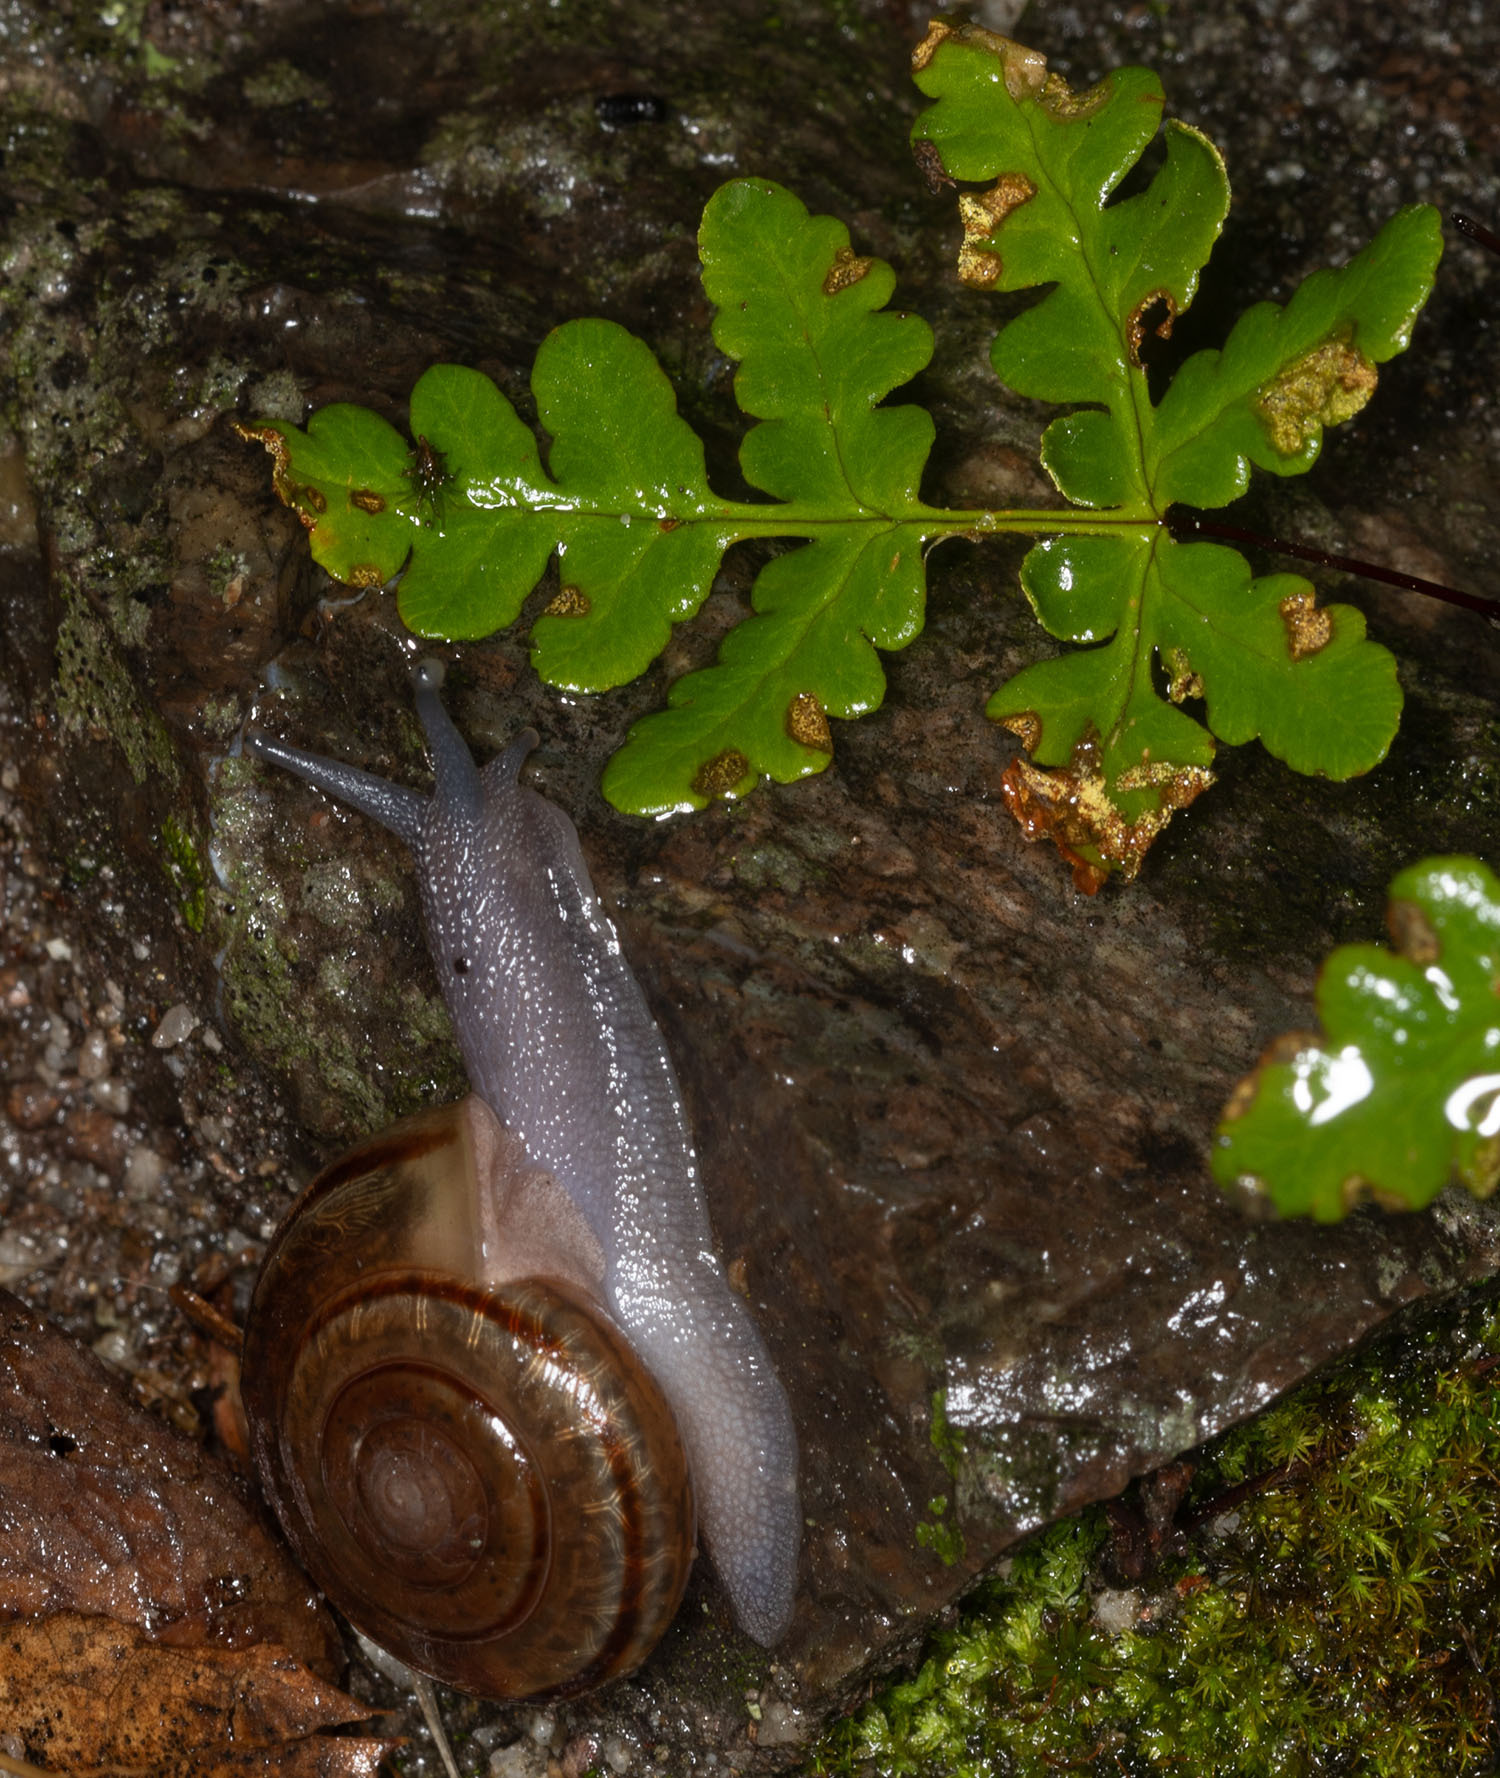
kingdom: Animalia
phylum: Mollusca
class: Gastropoda
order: Stylommatophora
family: Xanthonychidae
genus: Helminthoglypta
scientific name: Helminthoglypta benitoensis
